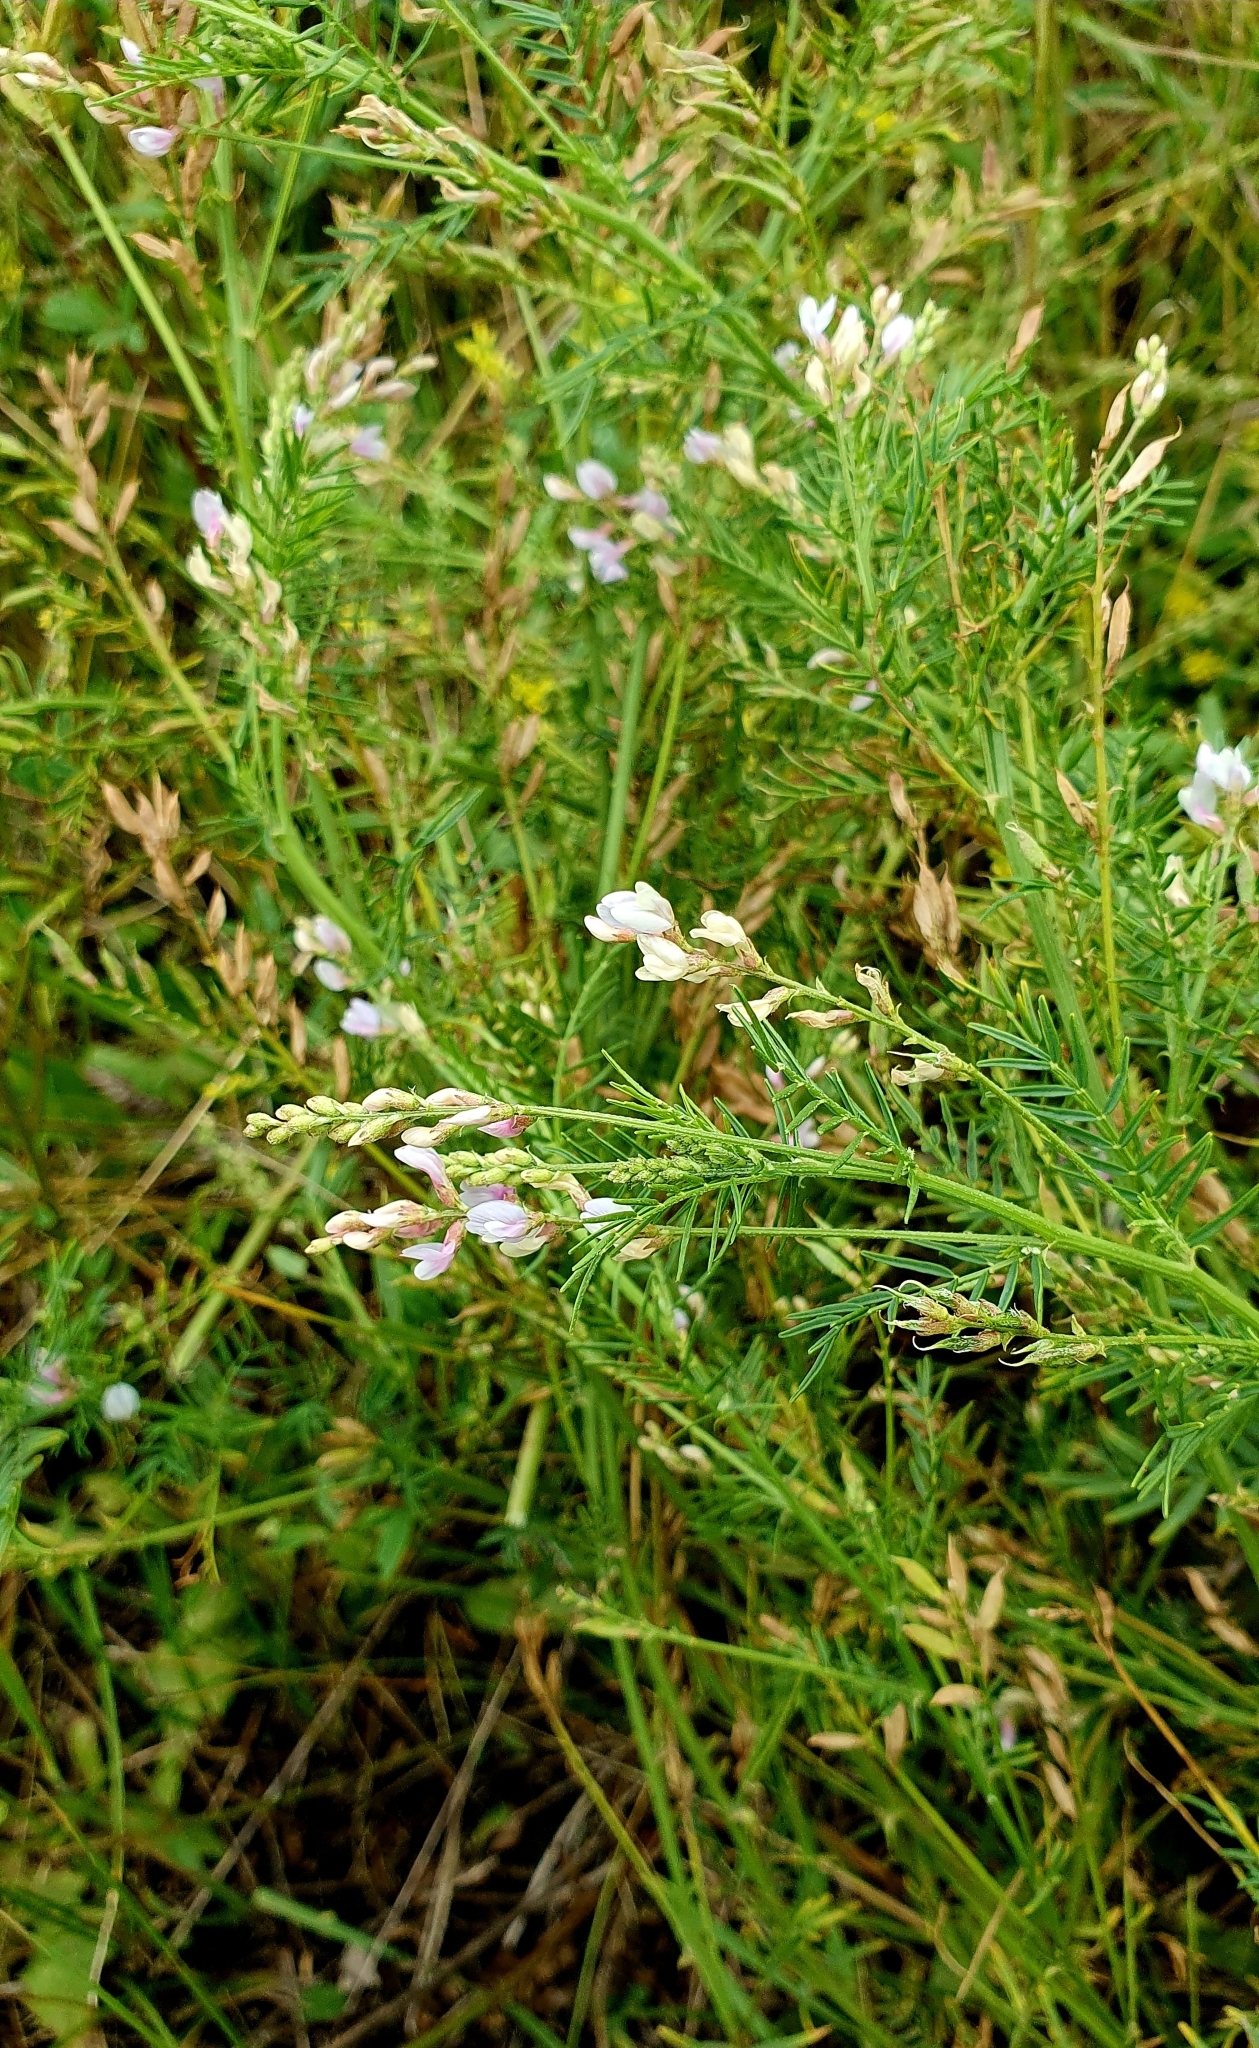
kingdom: Plantae
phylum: Tracheophyta
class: Magnoliopsida
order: Fabales
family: Fabaceae
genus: Astragalus
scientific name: Astragalus sulcatus
